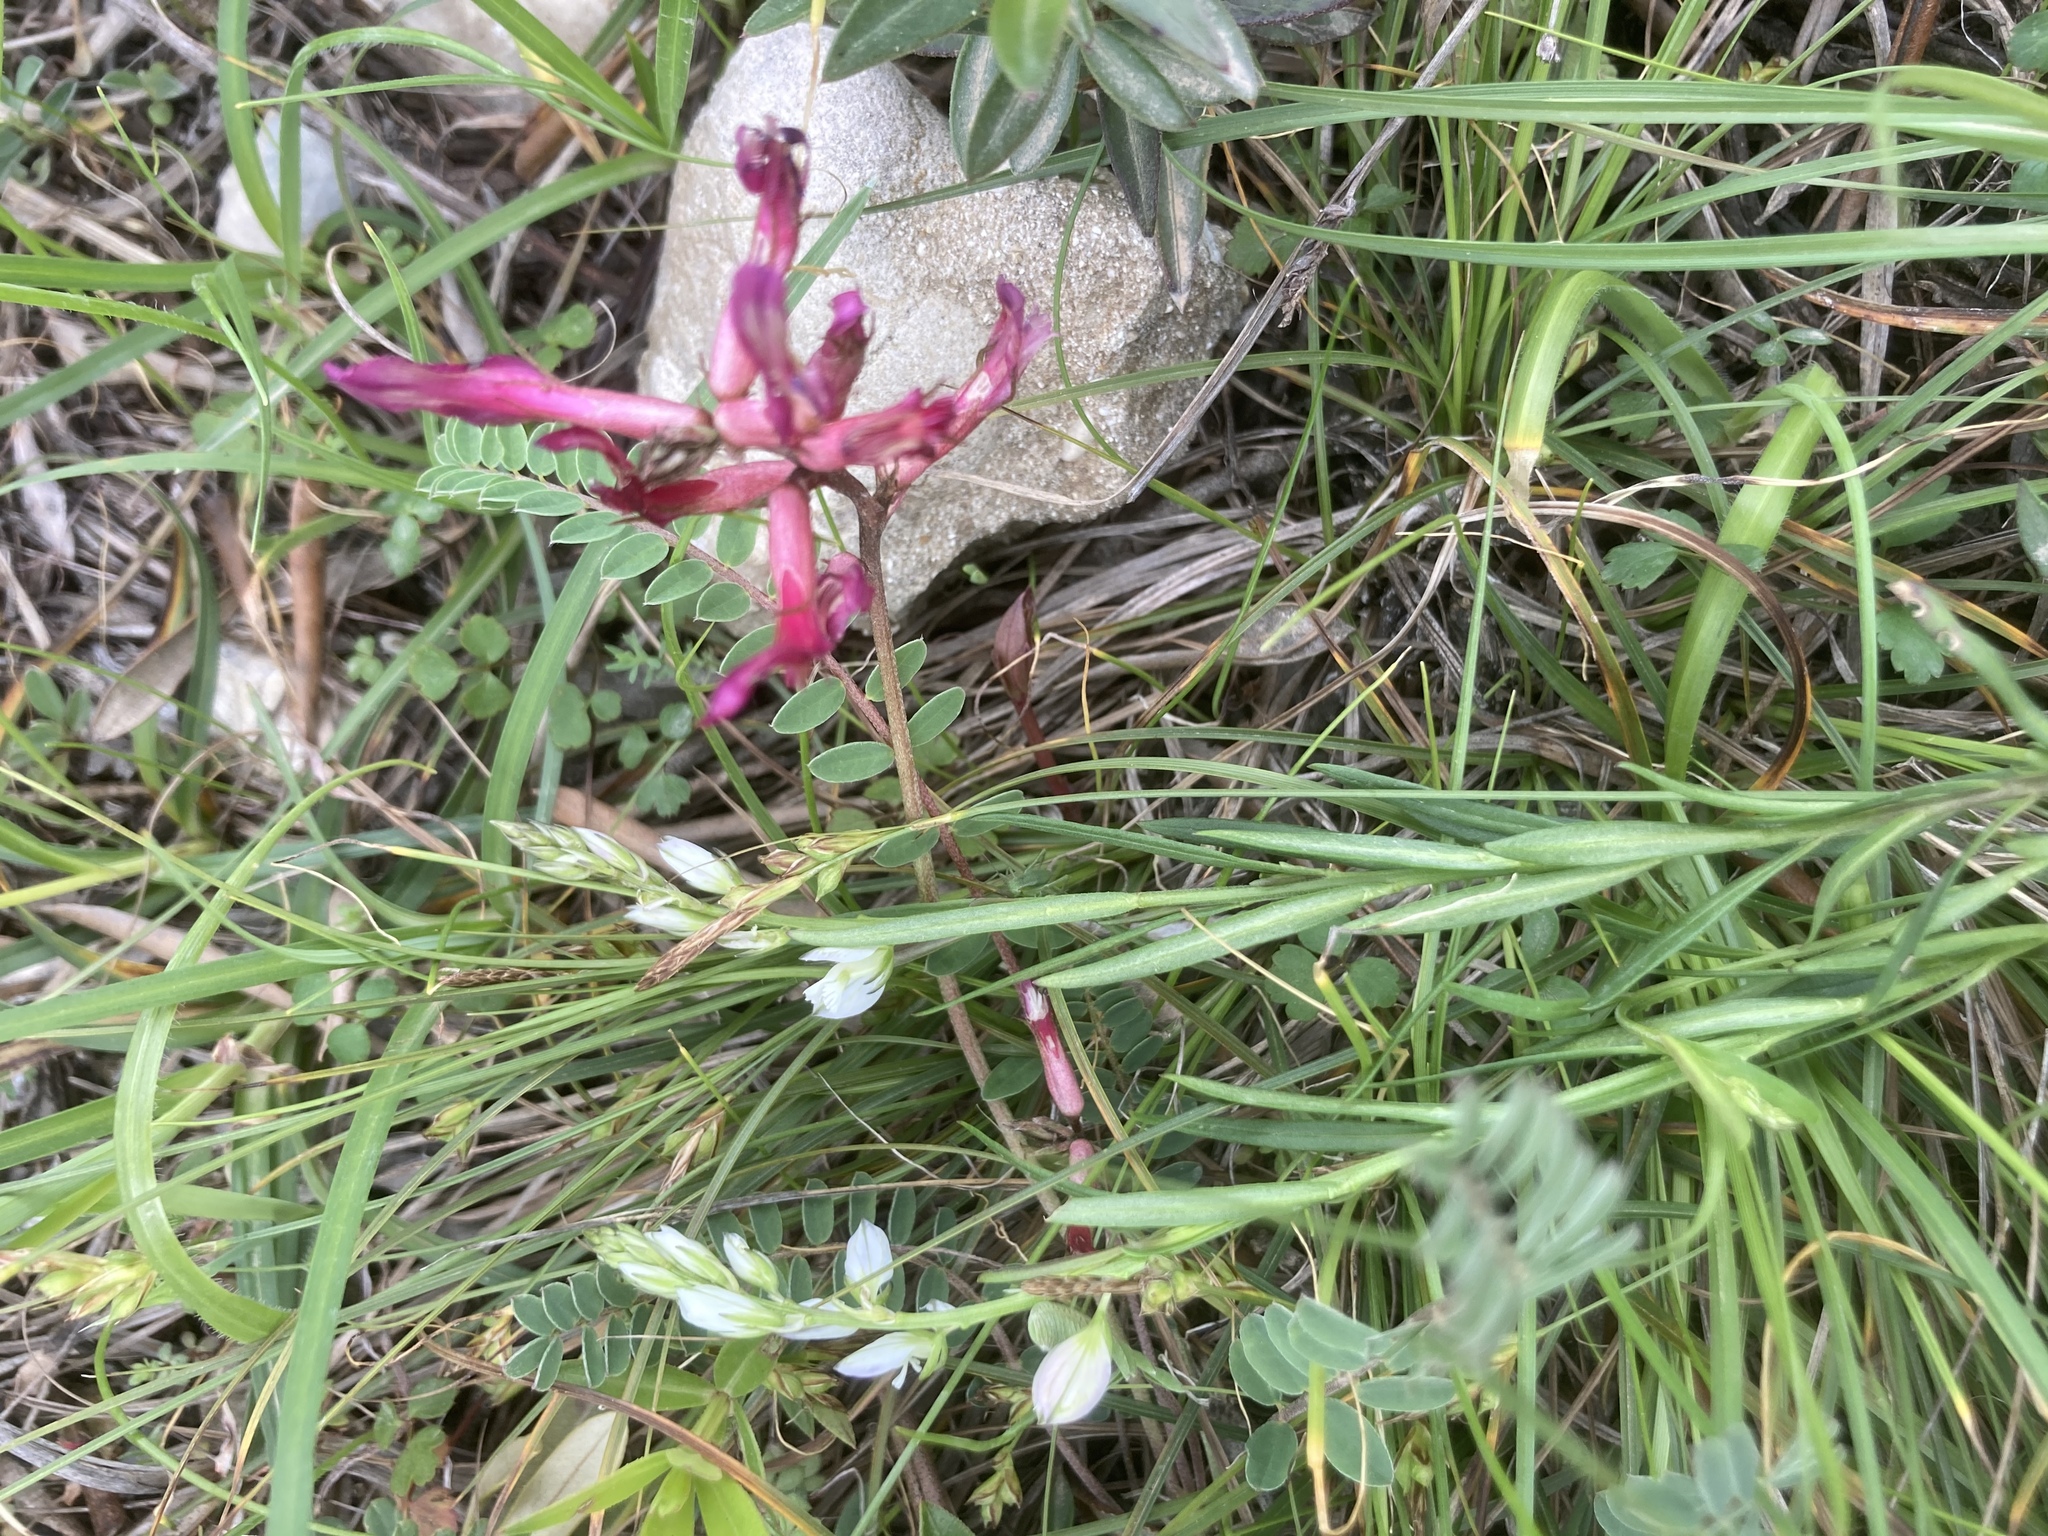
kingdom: Plantae
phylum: Tracheophyta
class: Magnoliopsida
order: Gentianales
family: Rubiaceae
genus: Sherardia
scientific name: Sherardia arvensis
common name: Field madder
